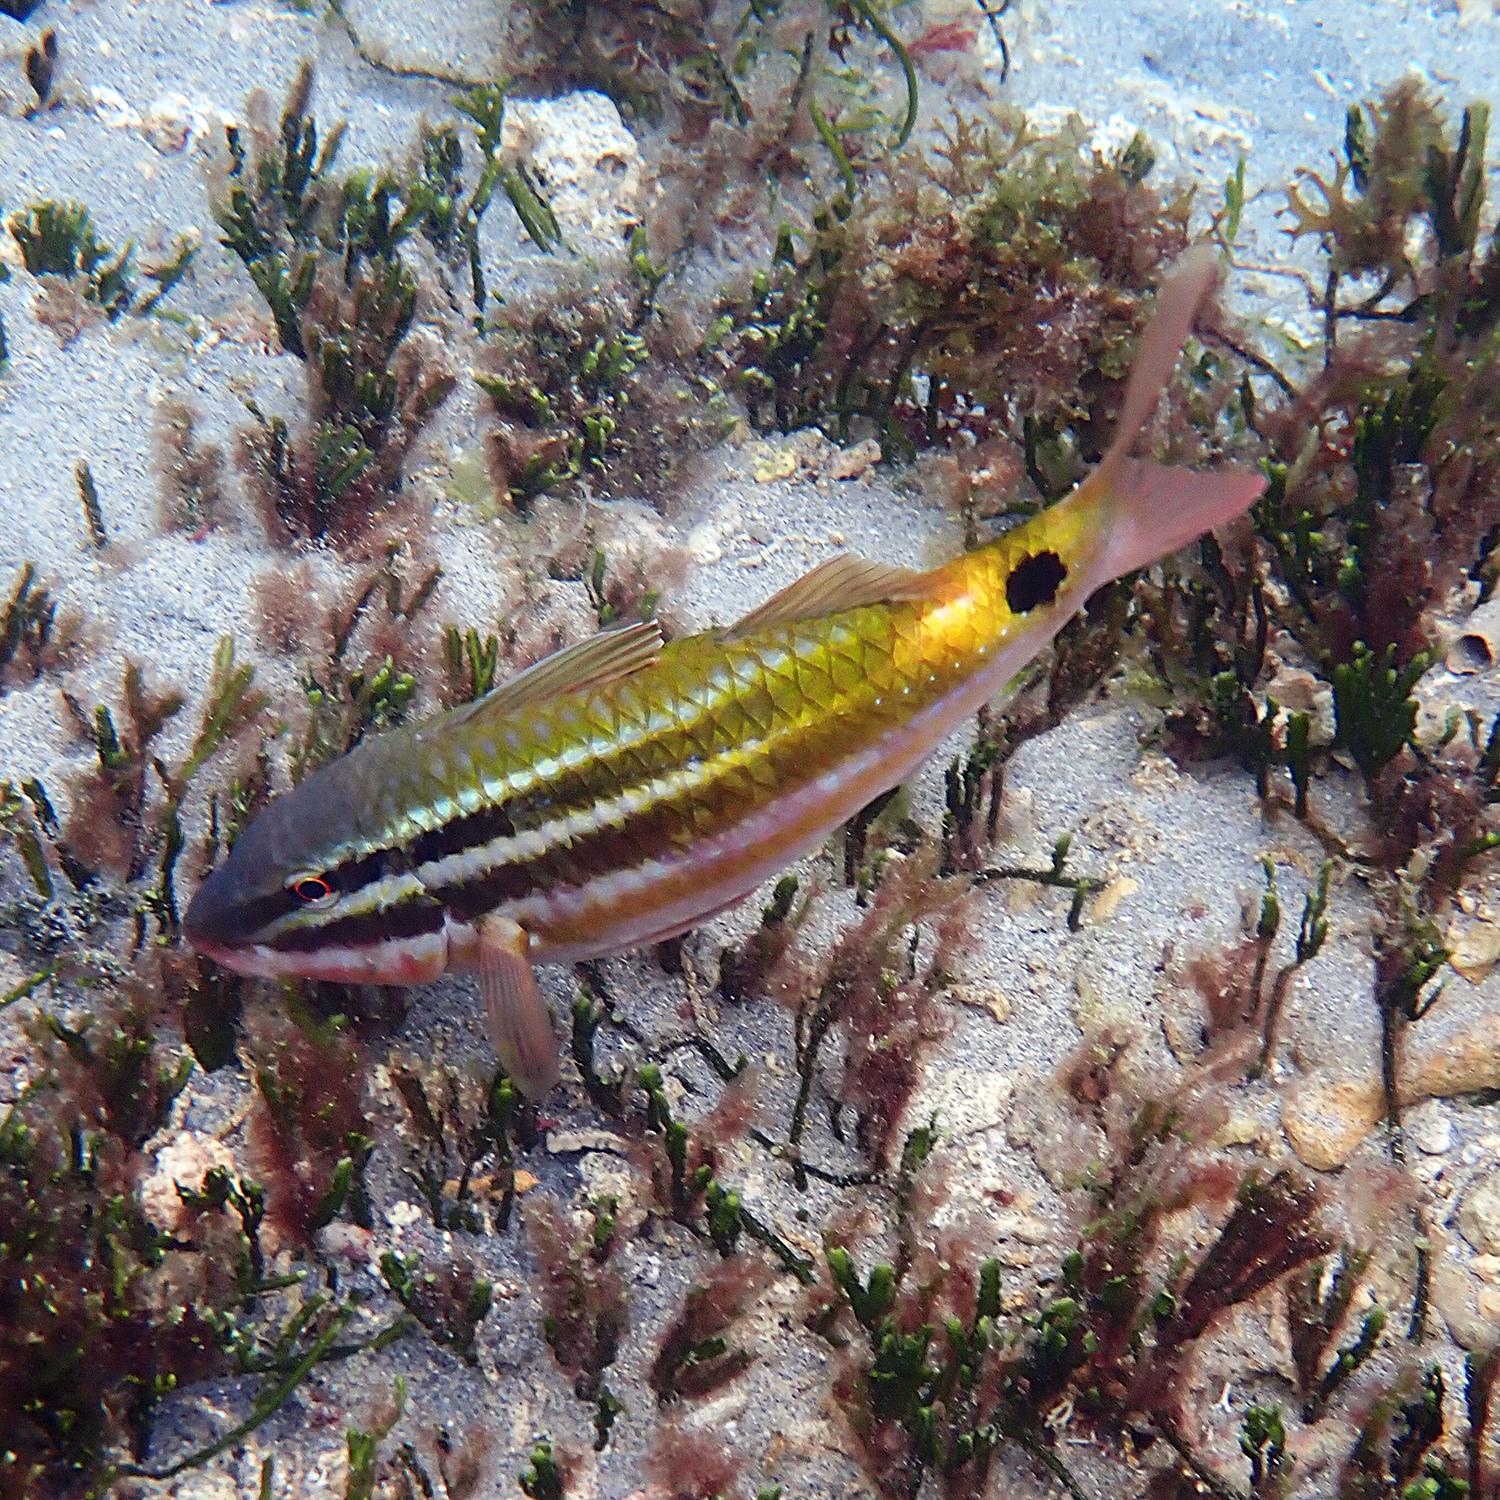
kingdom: Animalia
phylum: Chordata
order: Perciformes
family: Mullidae
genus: Parupeneus
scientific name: Parupeneus spilurus
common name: Blackspot goatfish
